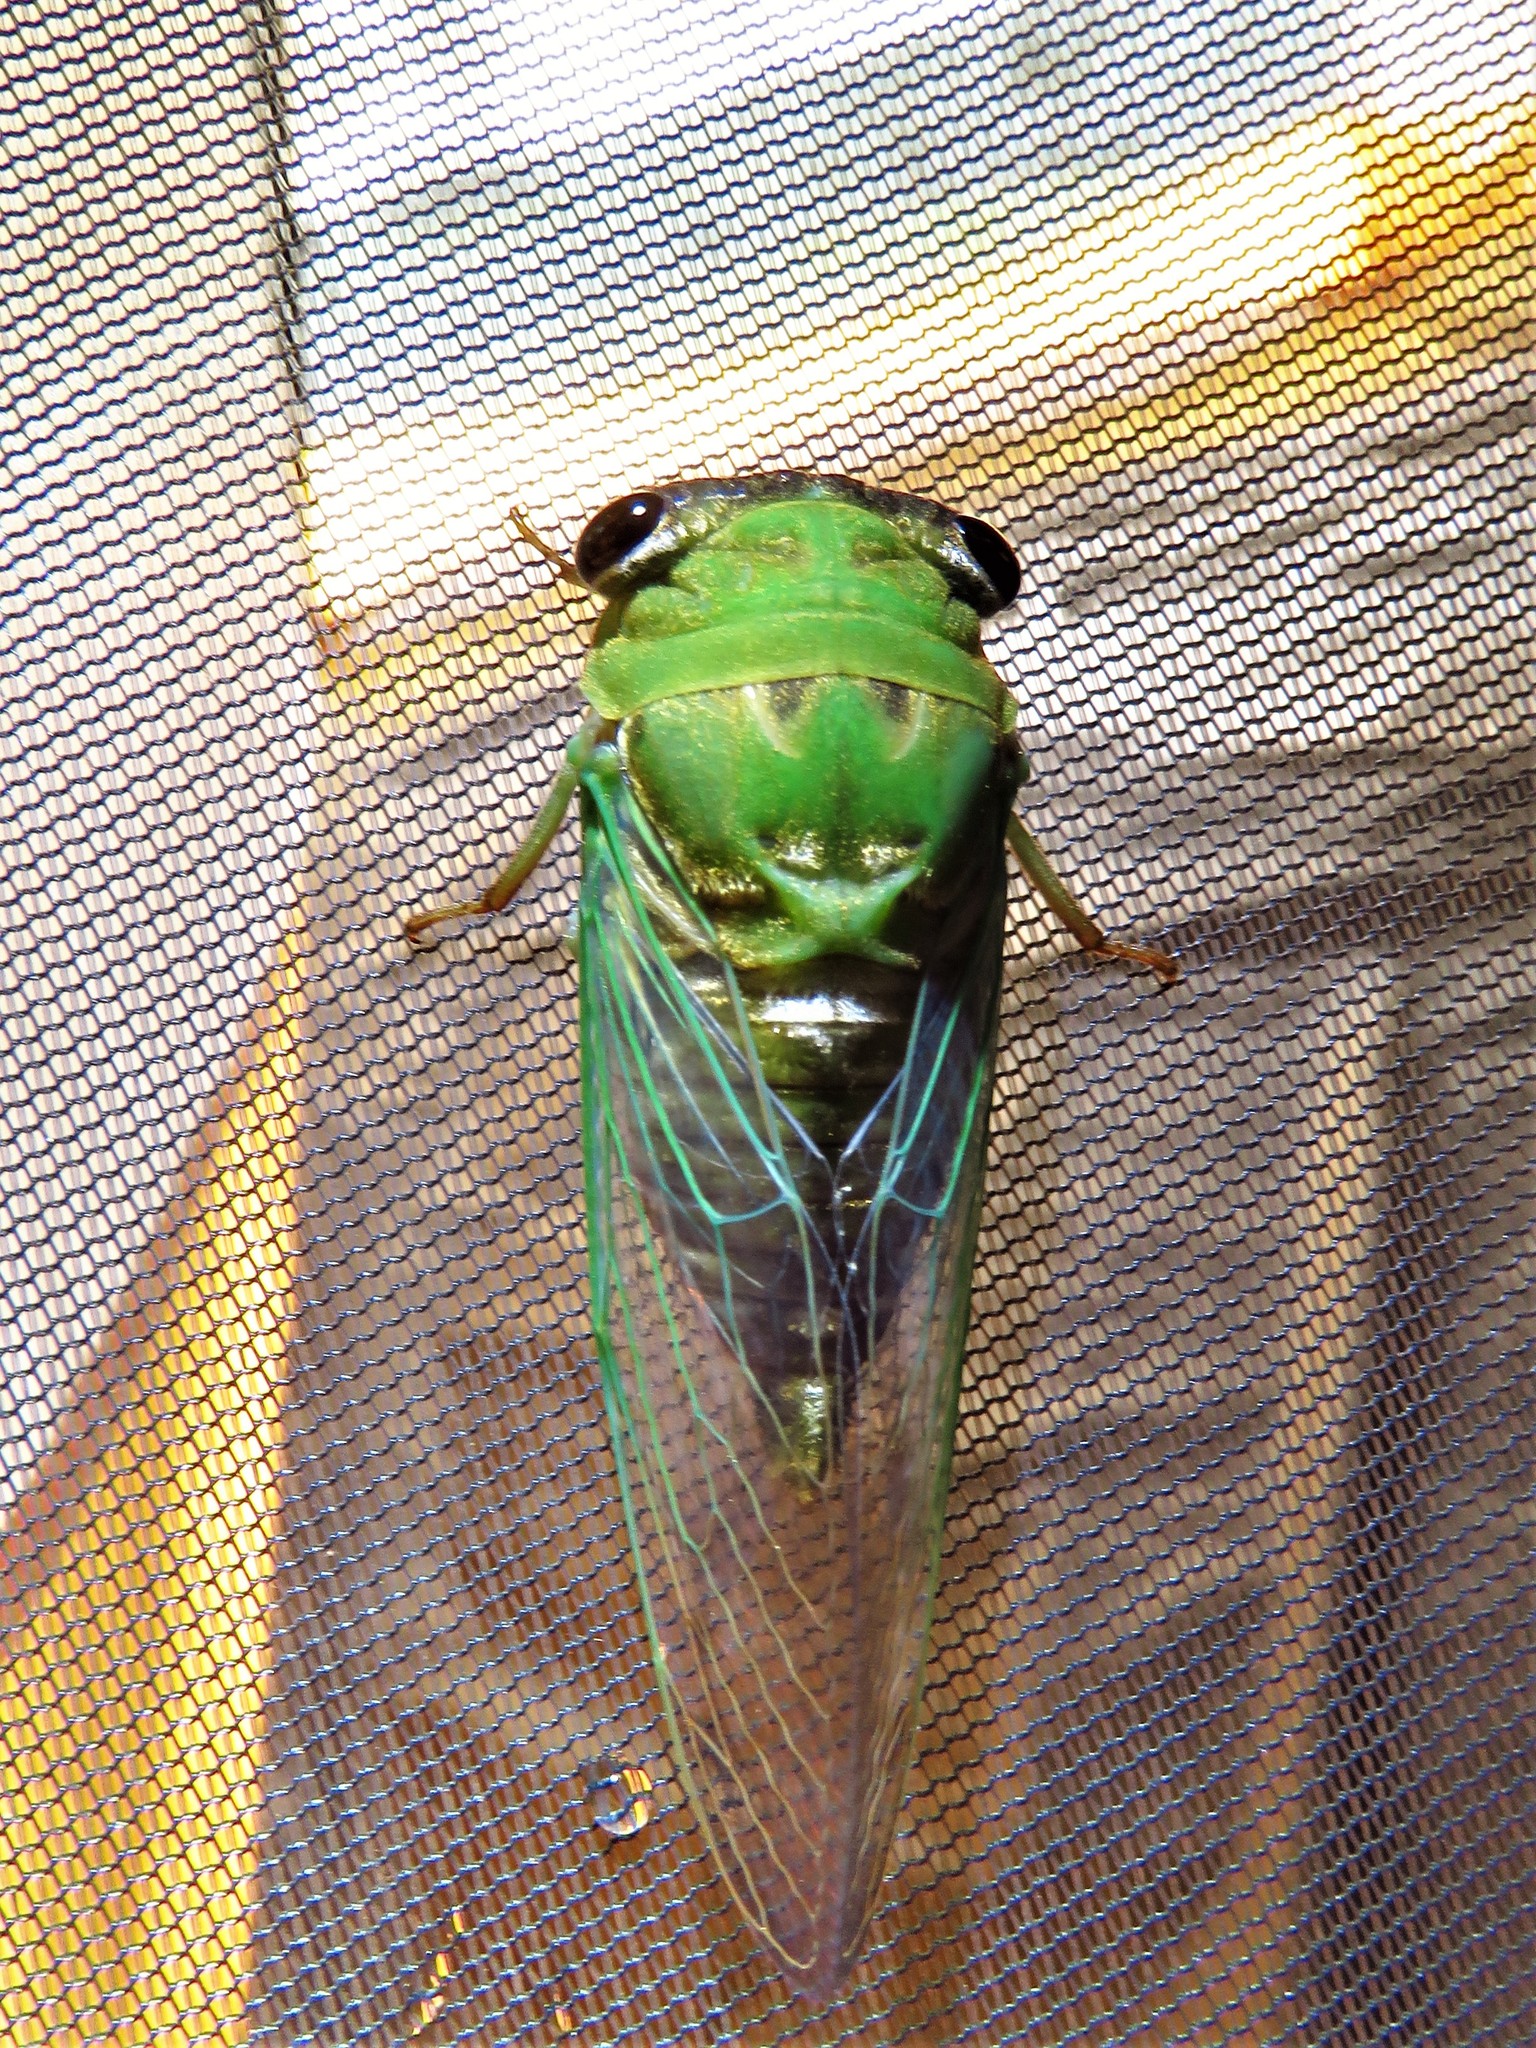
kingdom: Animalia
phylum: Arthropoda
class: Insecta
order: Hemiptera
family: Cicadidae
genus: Neotibicen
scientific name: Neotibicen superbus
